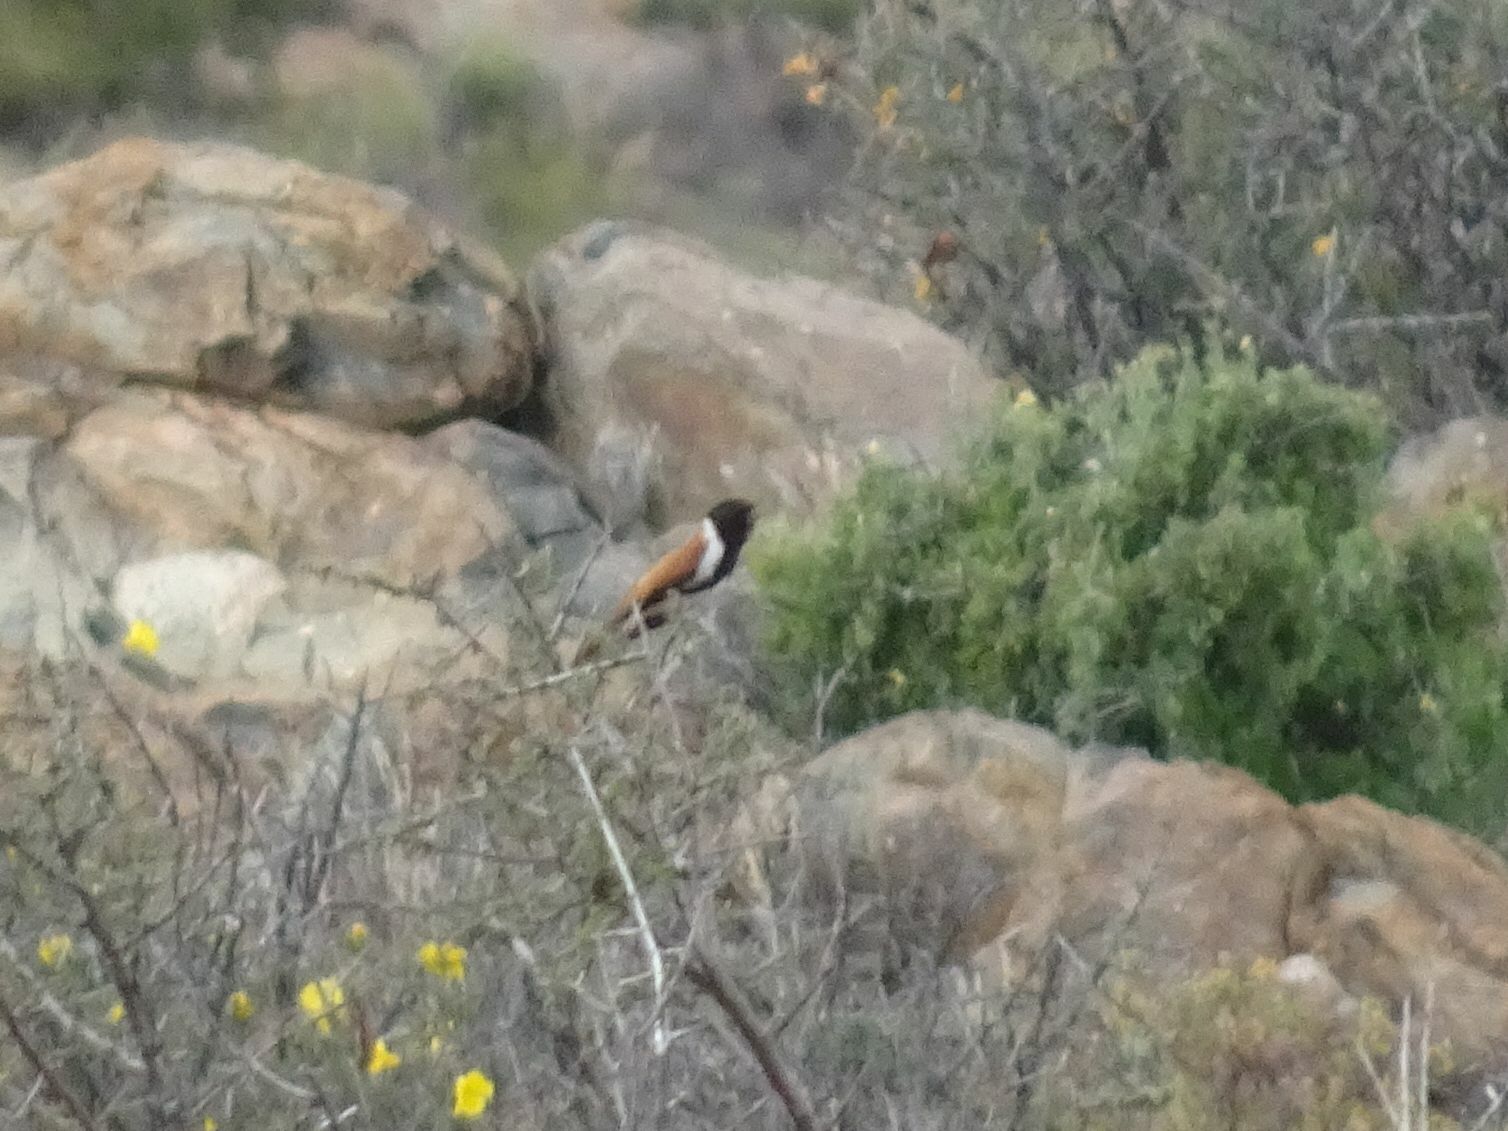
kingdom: Animalia
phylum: Chordata
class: Aves
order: Passeriformes
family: Fringillidae
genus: Serinus
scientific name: Serinus alario
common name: Black-headed canary
